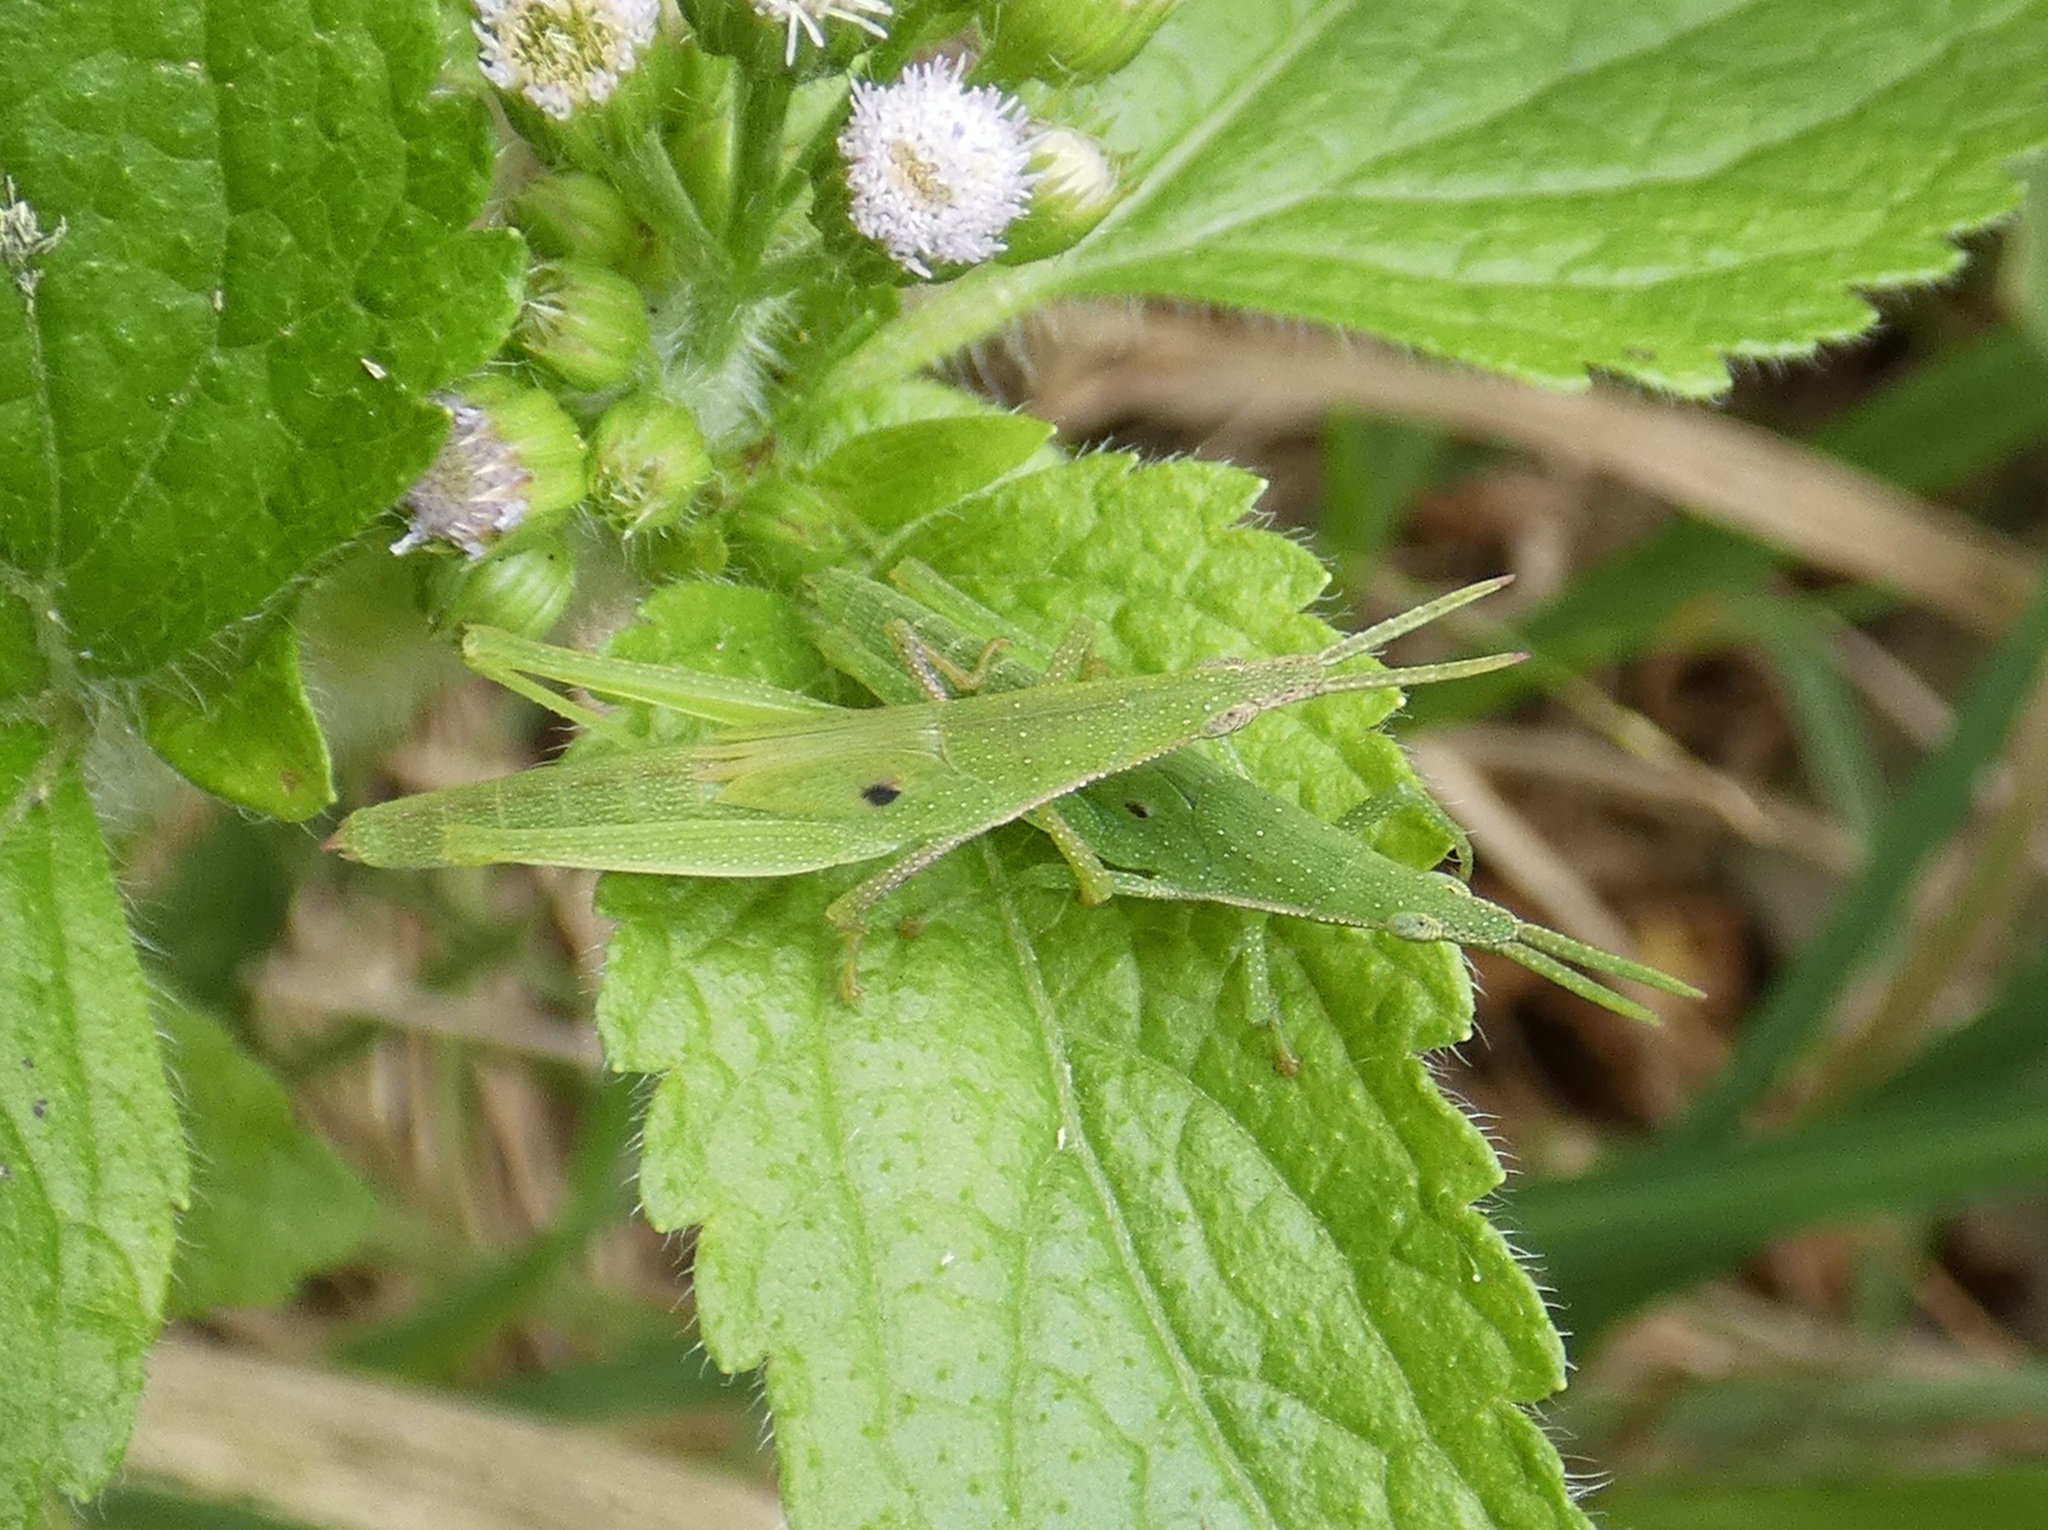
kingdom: Animalia
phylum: Arthropoda
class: Insecta
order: Orthoptera
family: Pyrgomorphidae
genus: Atractomorpha
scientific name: Atractomorpha similis
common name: Northern grass pyrgomorph
